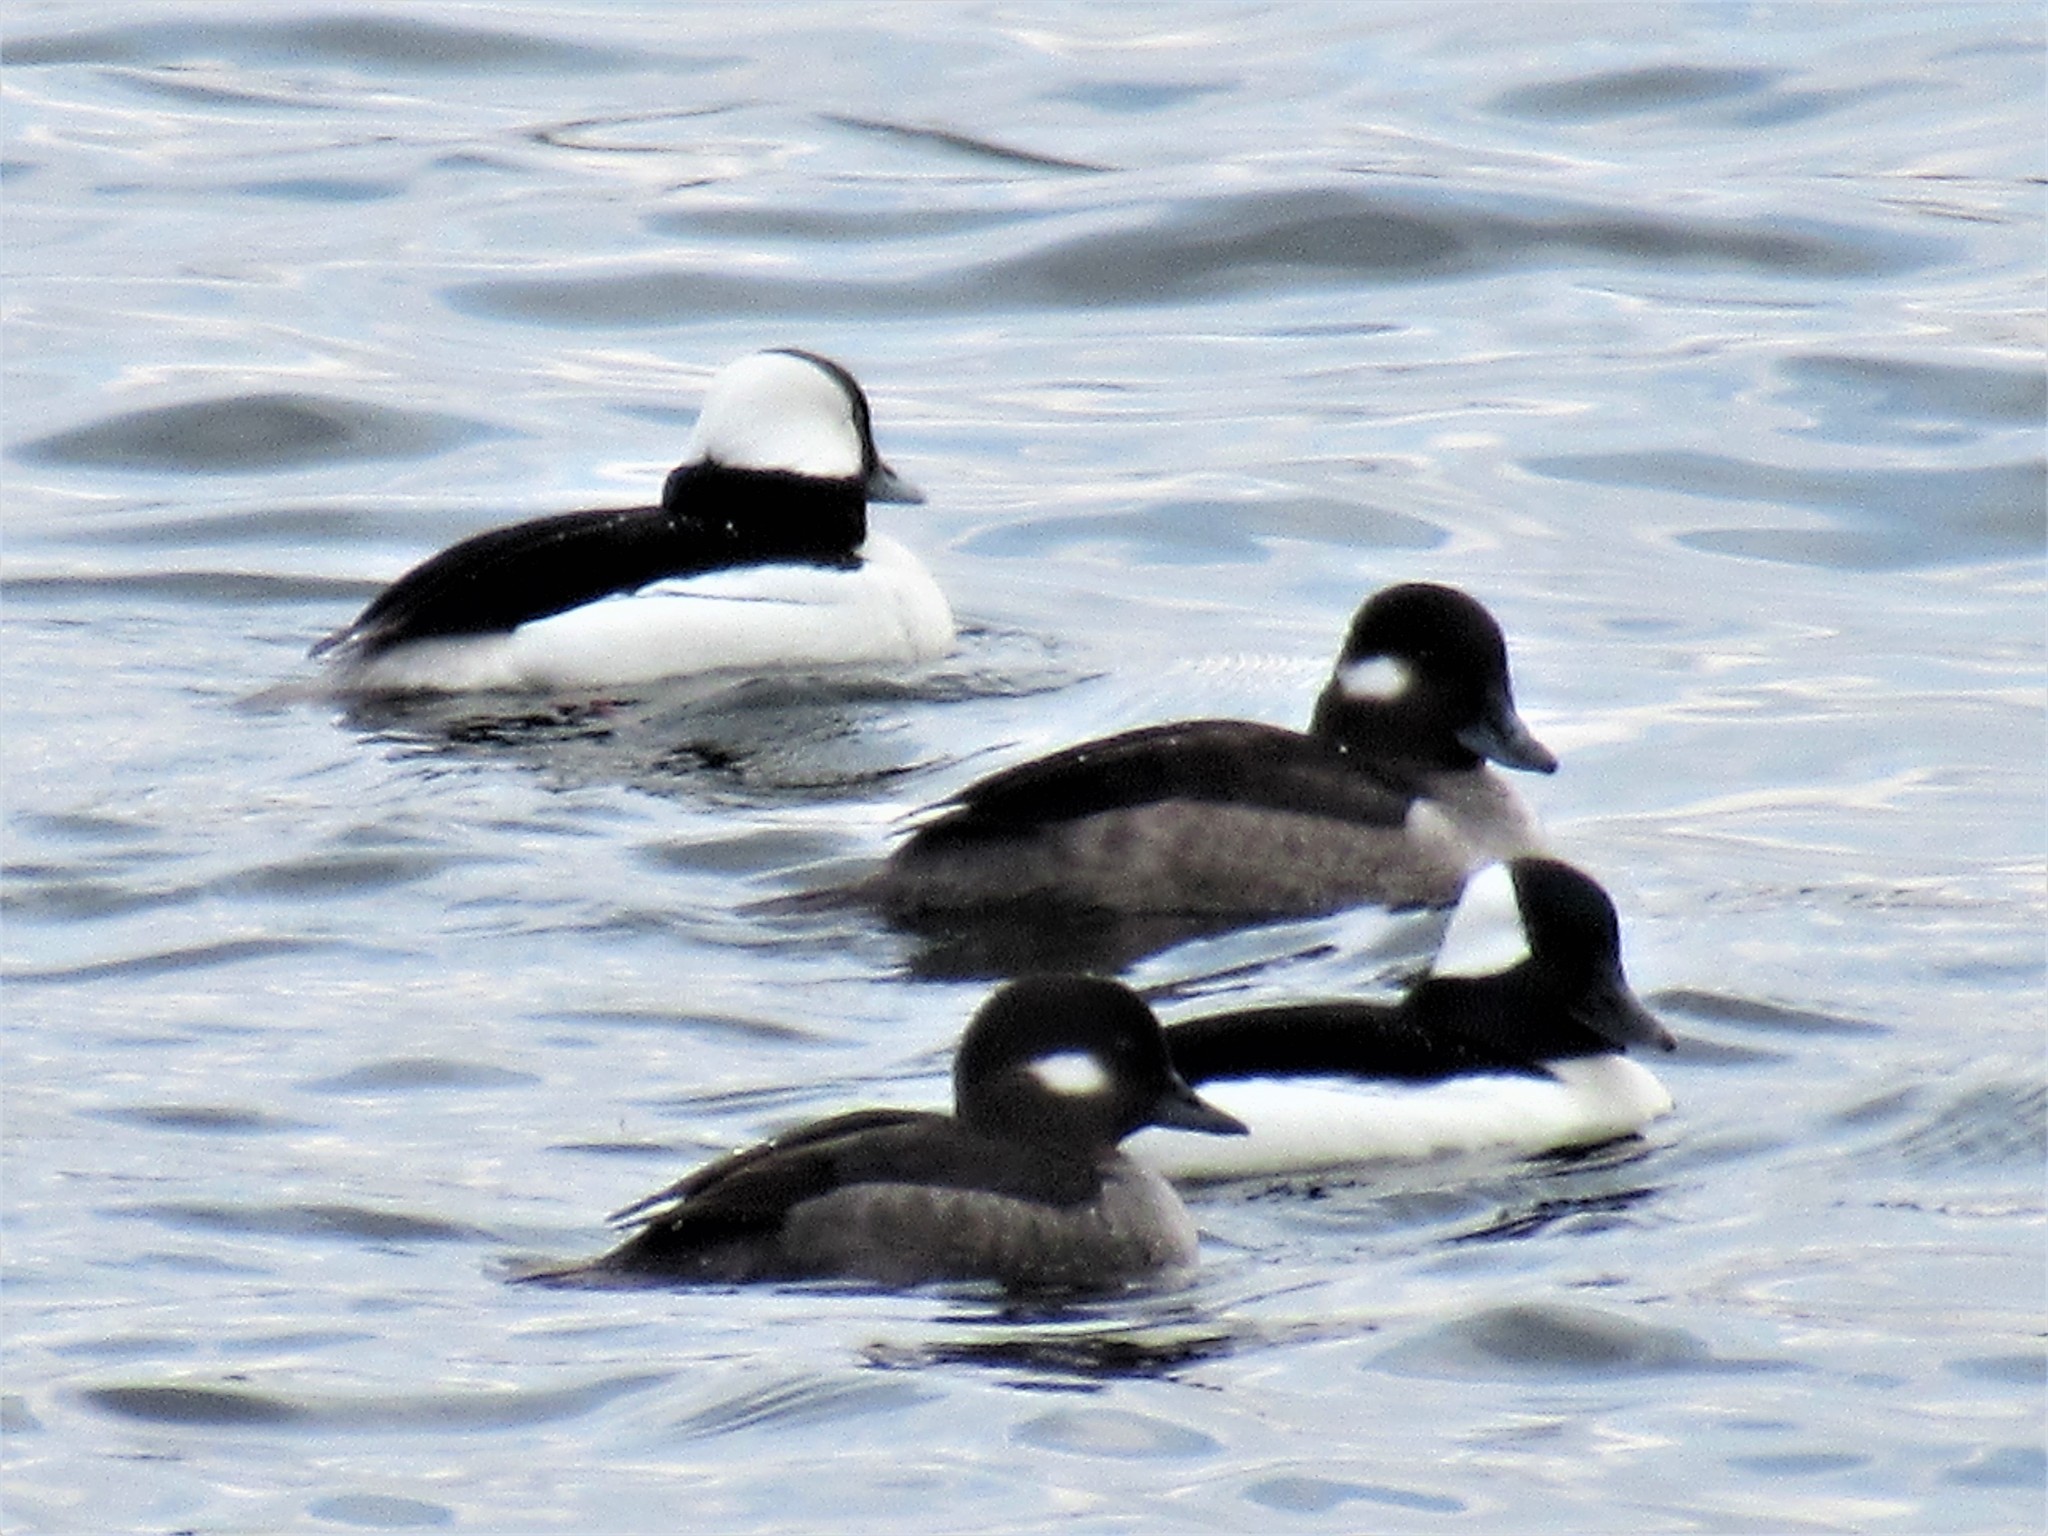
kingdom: Animalia
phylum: Chordata
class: Aves
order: Anseriformes
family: Anatidae
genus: Bucephala
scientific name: Bucephala albeola
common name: Bufflehead
